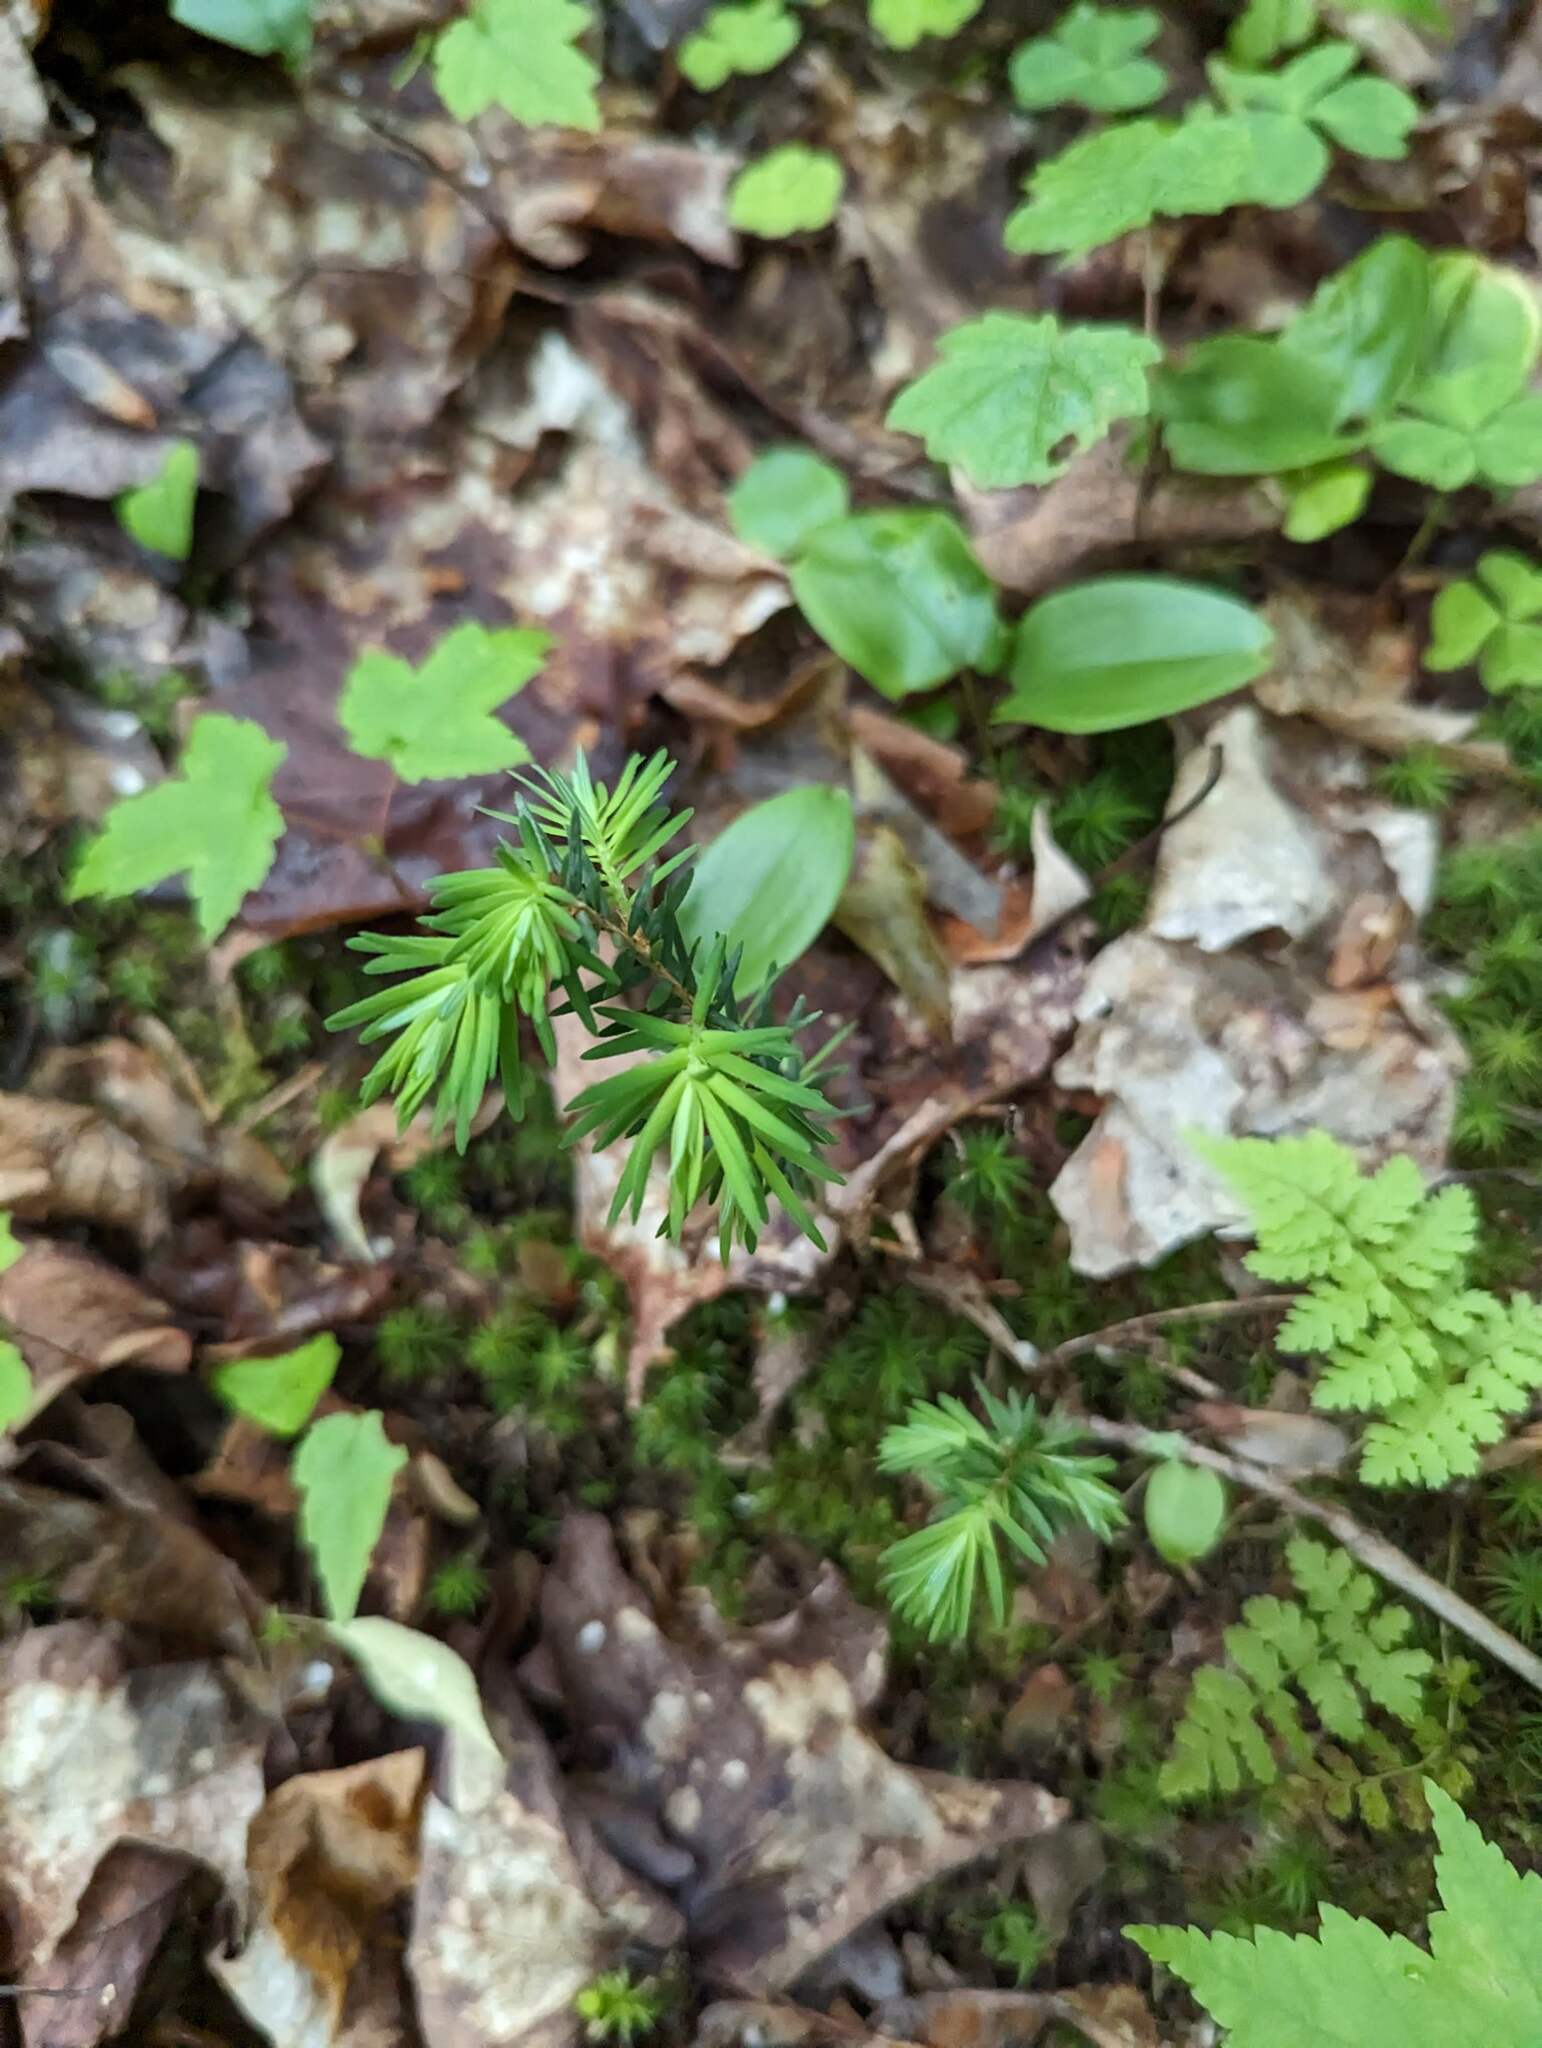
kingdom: Plantae
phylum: Tracheophyta
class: Pinopsida
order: Pinales
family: Pinaceae
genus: Tsuga
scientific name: Tsuga canadensis
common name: Eastern hemlock
